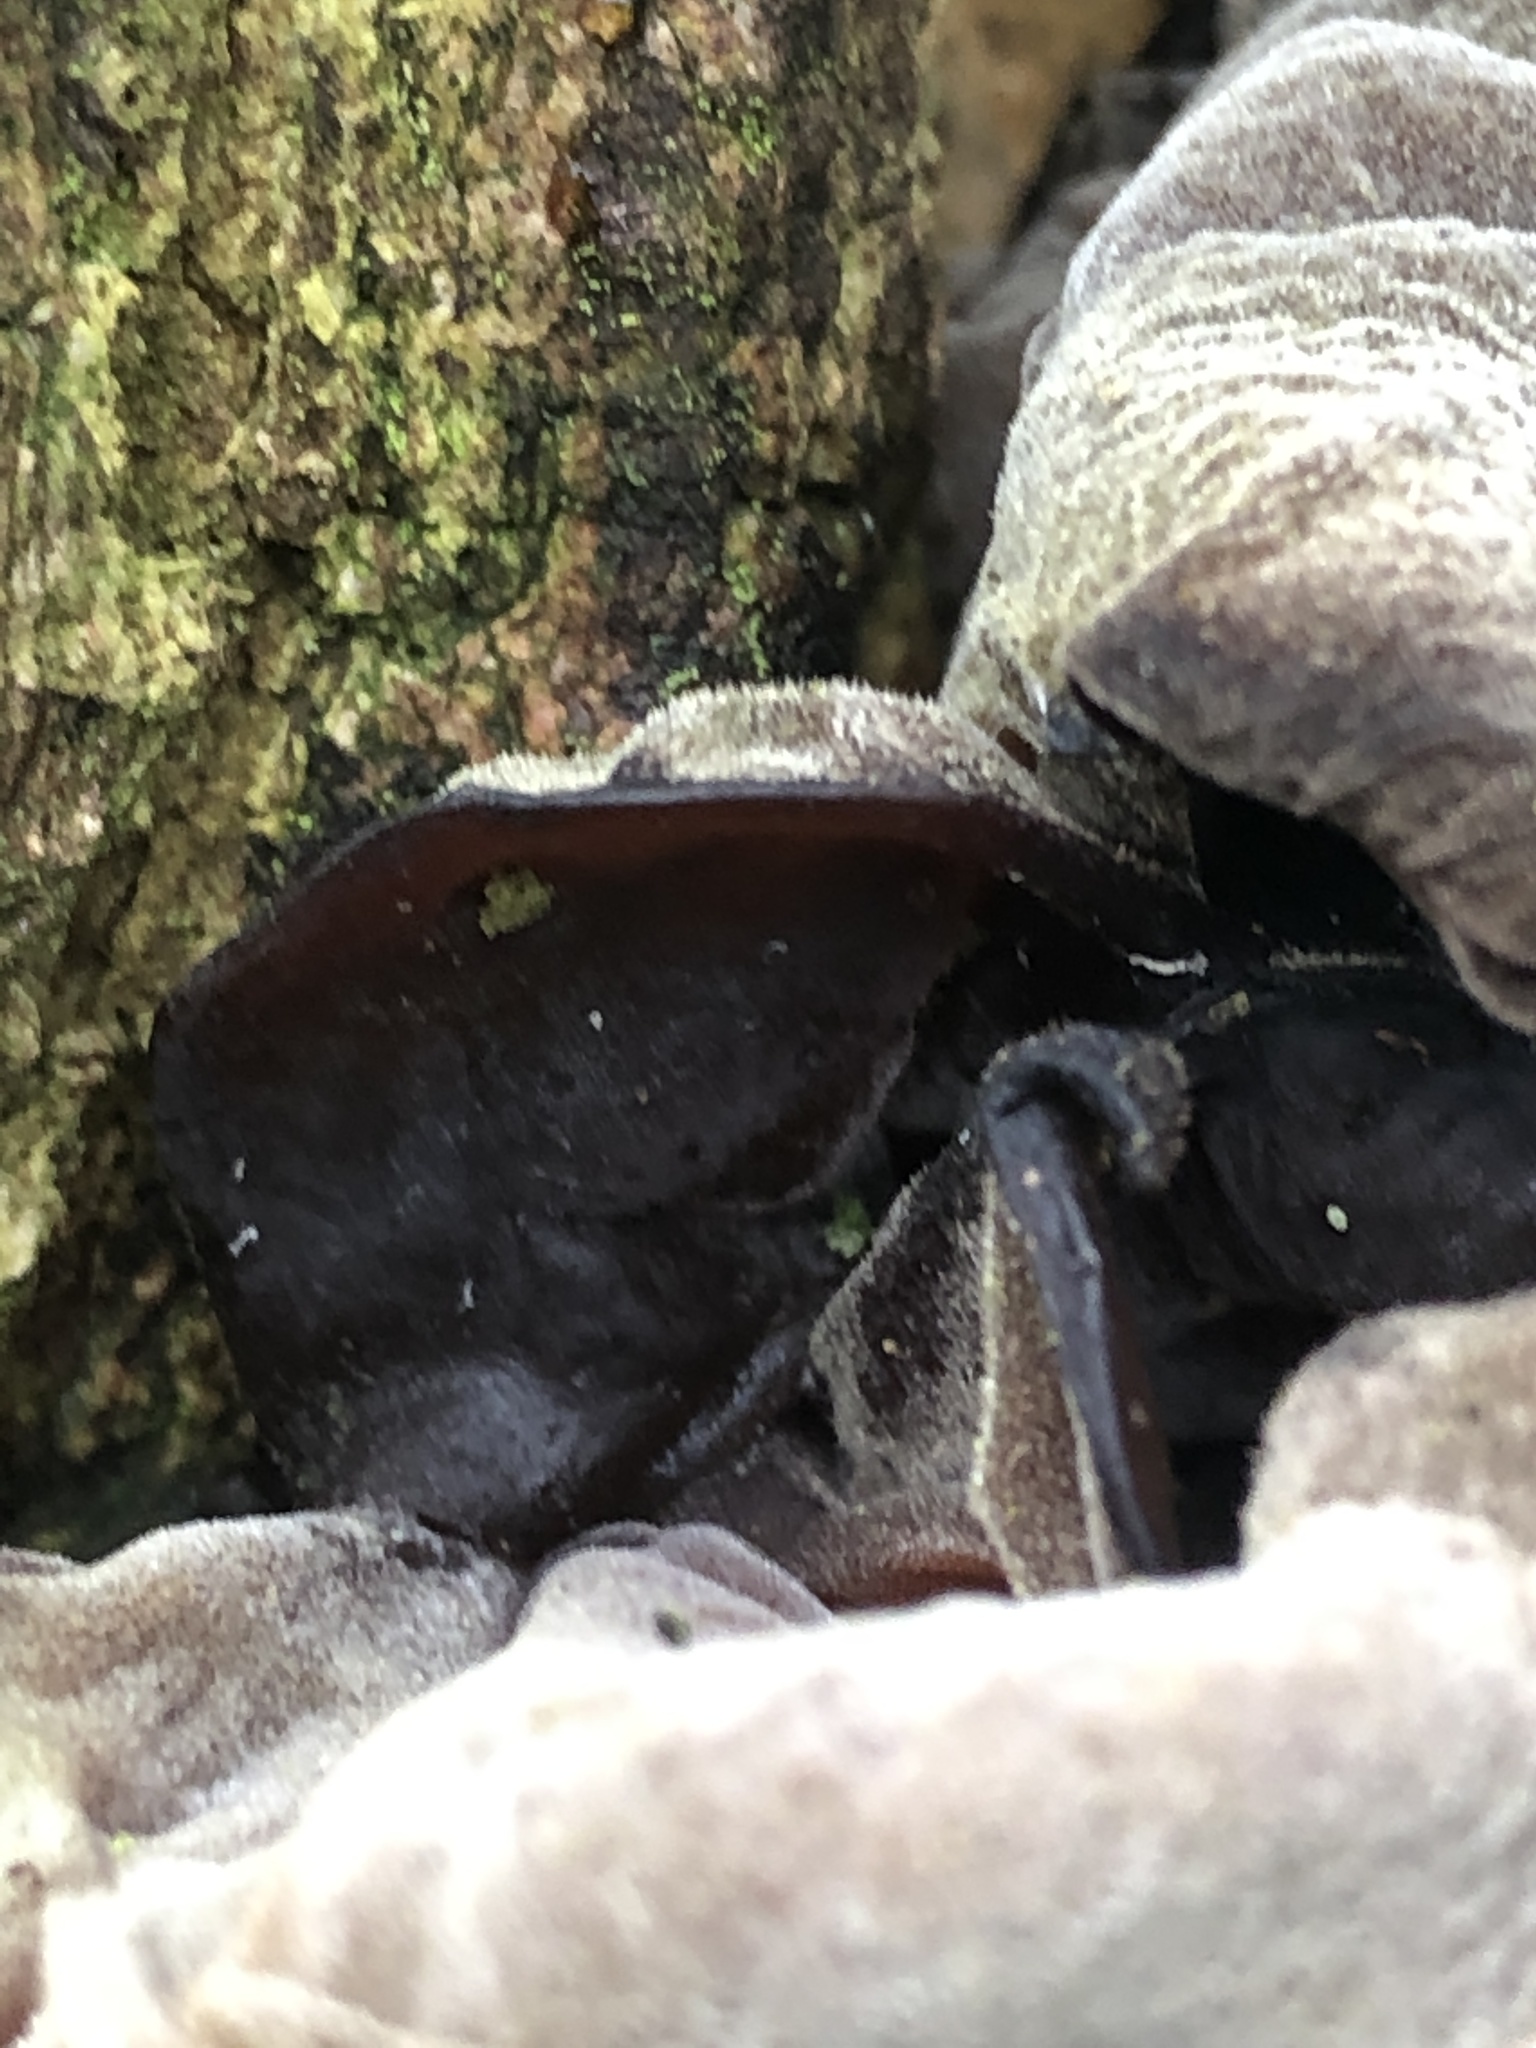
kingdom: Fungi
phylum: Basidiomycota
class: Agaricomycetes
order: Auriculariales
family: Auriculariaceae
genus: Auricularia
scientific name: Auricularia auricula-judae
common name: Jelly ear
